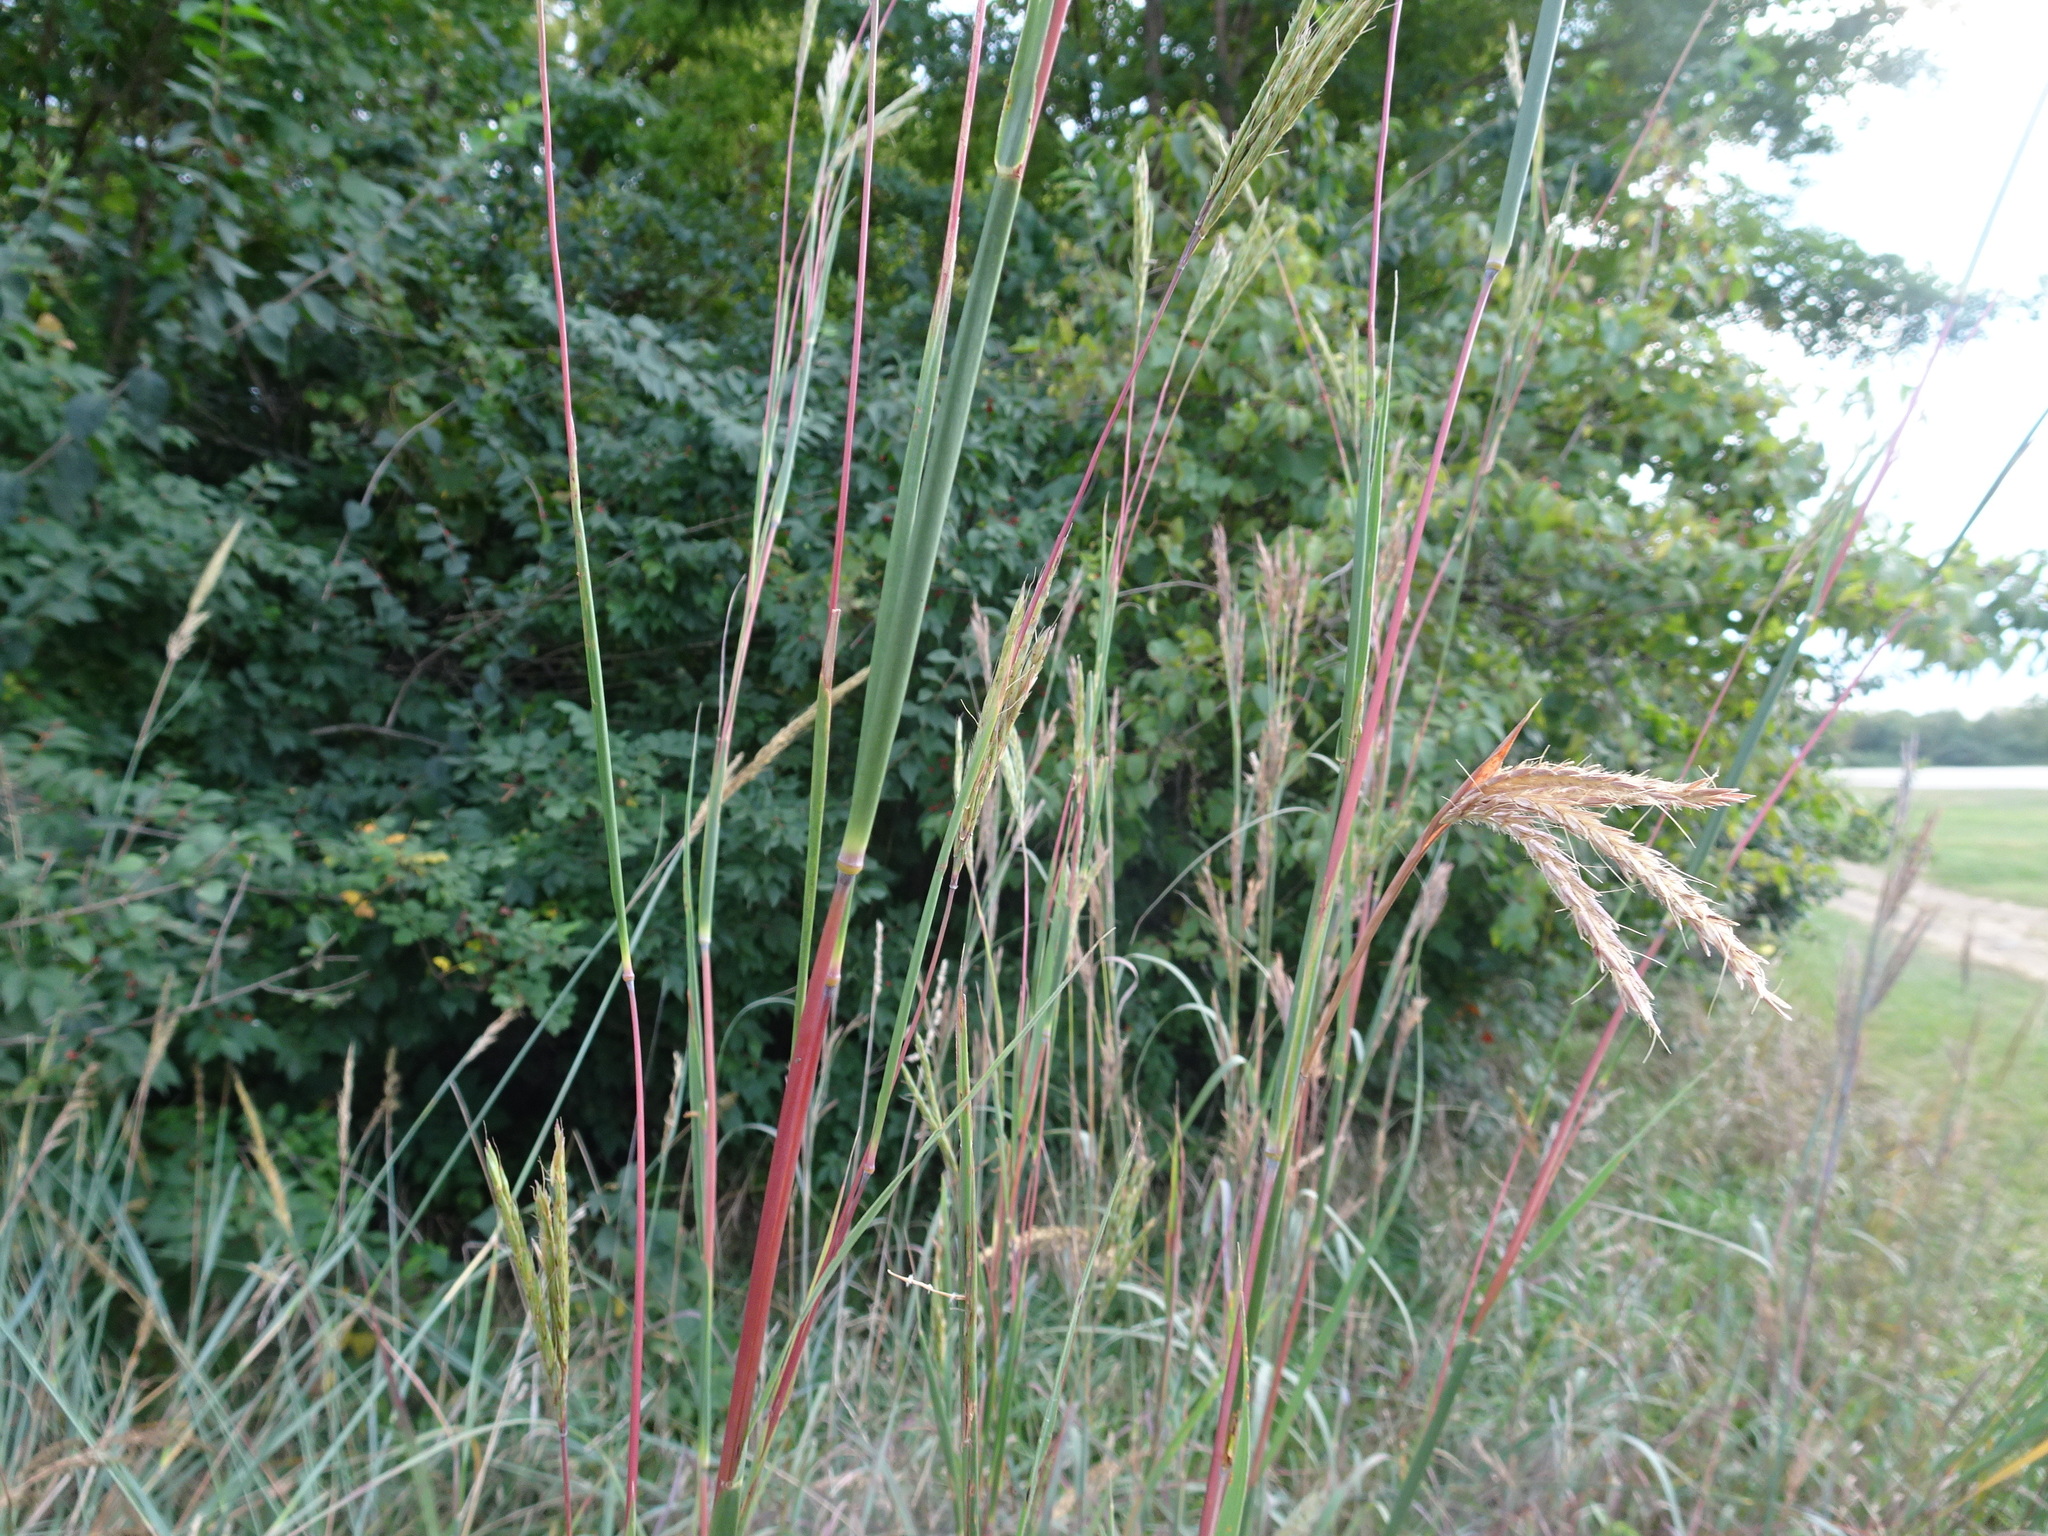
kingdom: Plantae
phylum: Tracheophyta
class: Liliopsida
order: Poales
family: Poaceae
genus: Andropogon
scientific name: Andropogon gerardi
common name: Big bluestem
